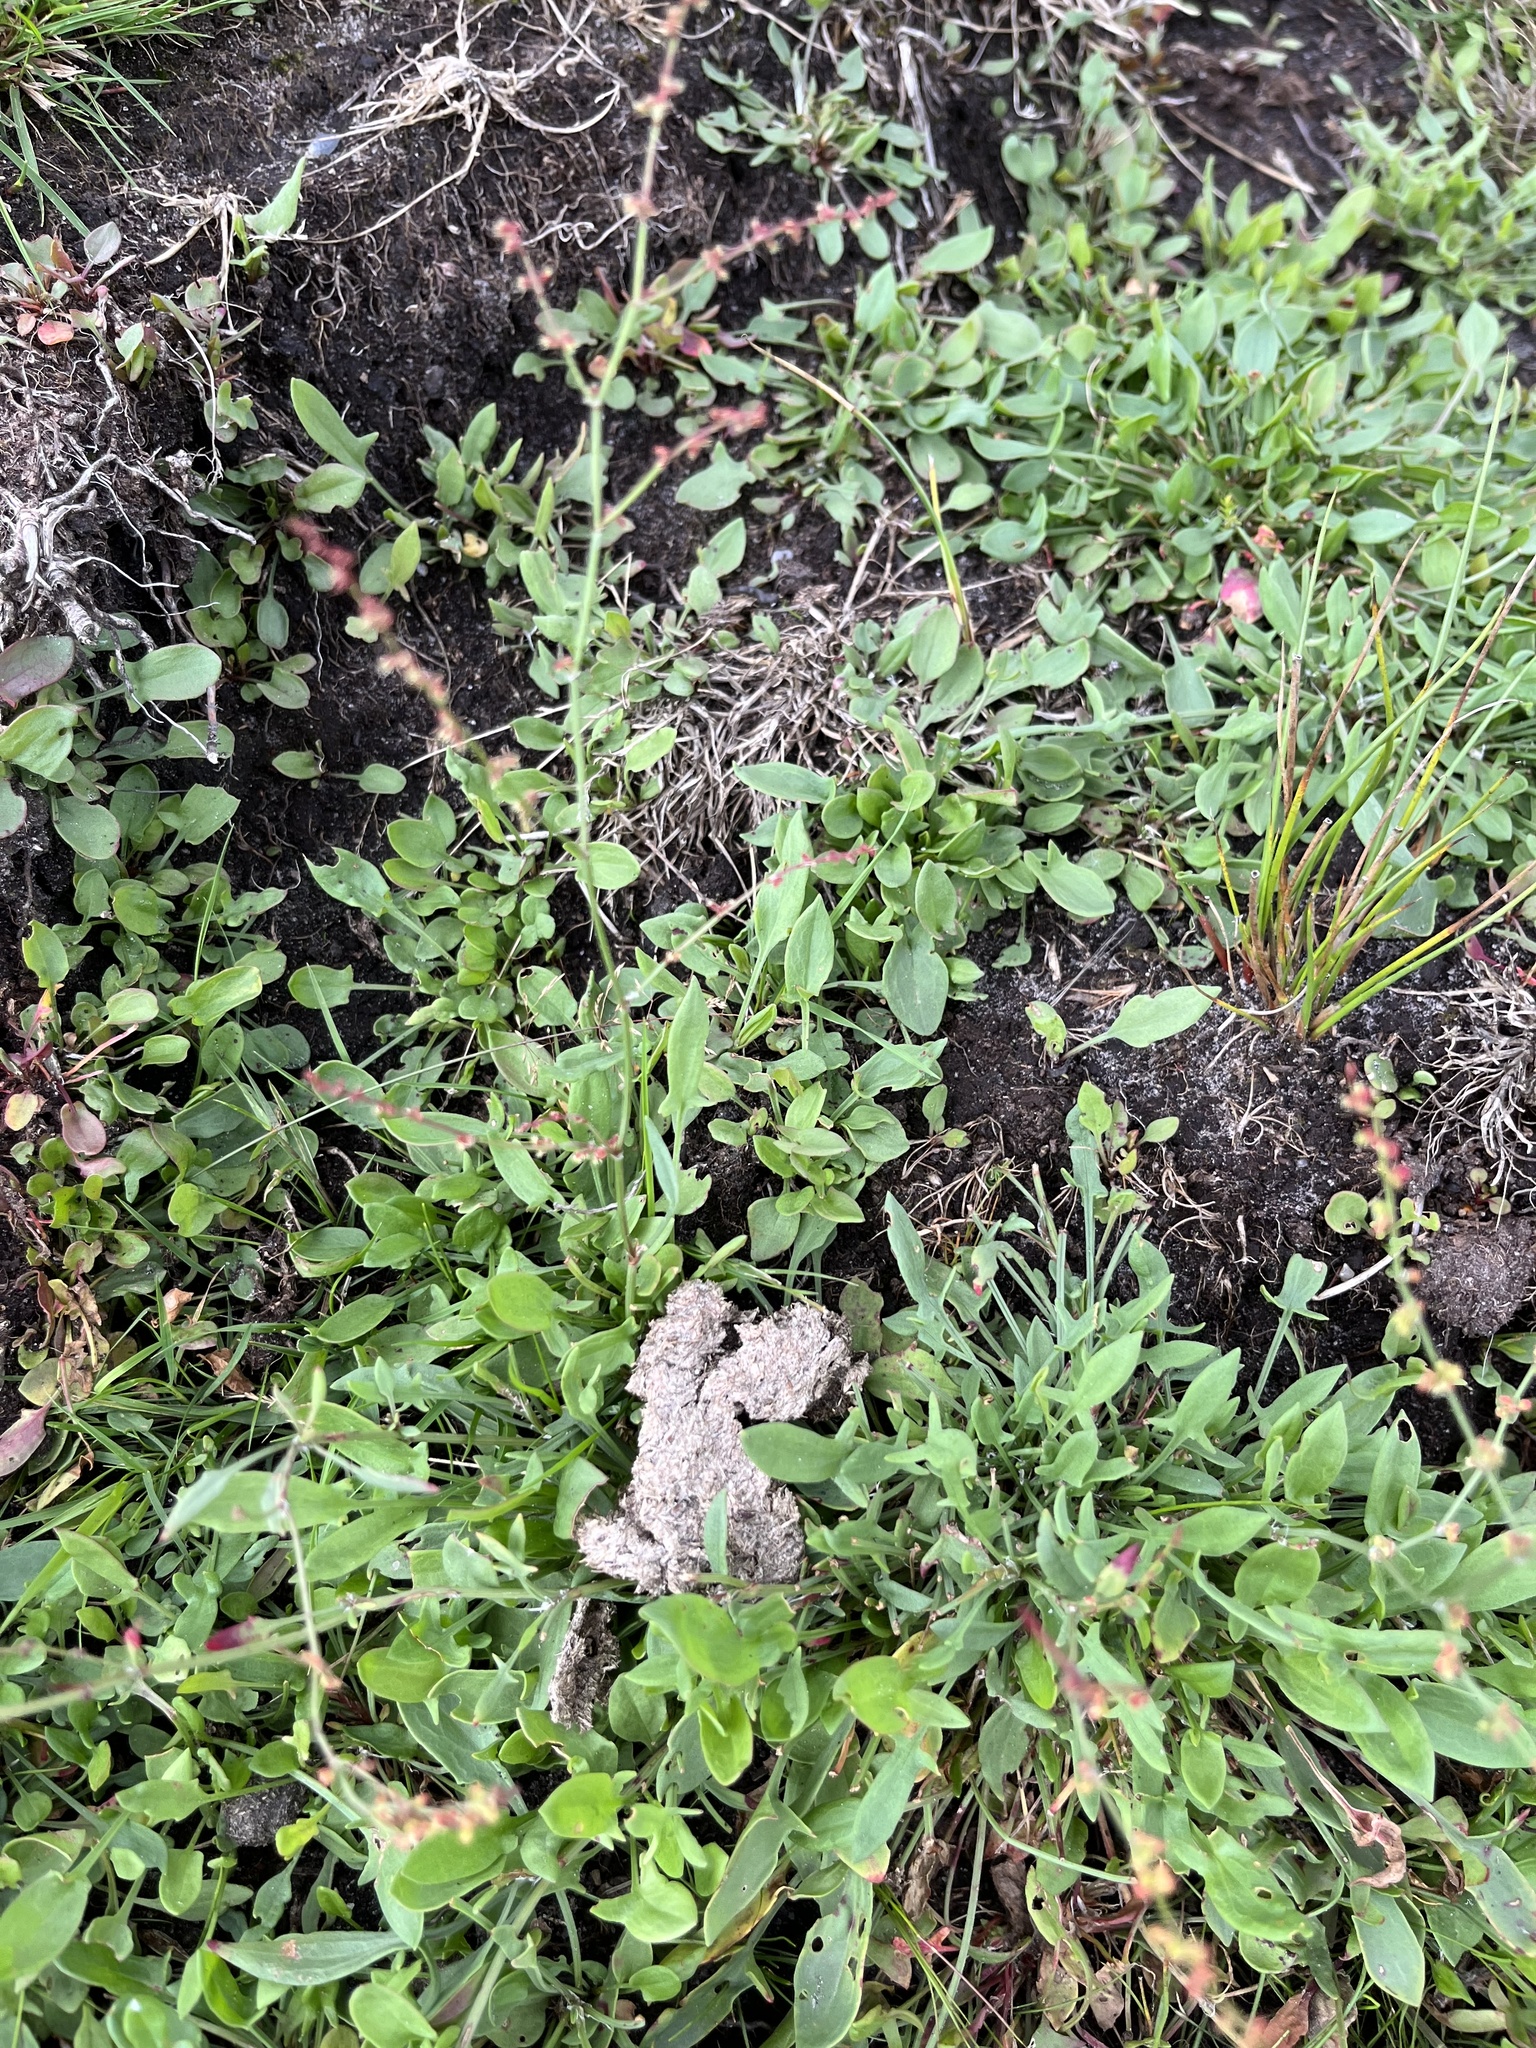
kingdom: Plantae
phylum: Tracheophyta
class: Magnoliopsida
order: Caryophyllales
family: Polygonaceae
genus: Rumex
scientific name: Rumex acetosella
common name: Common sheep sorrel
